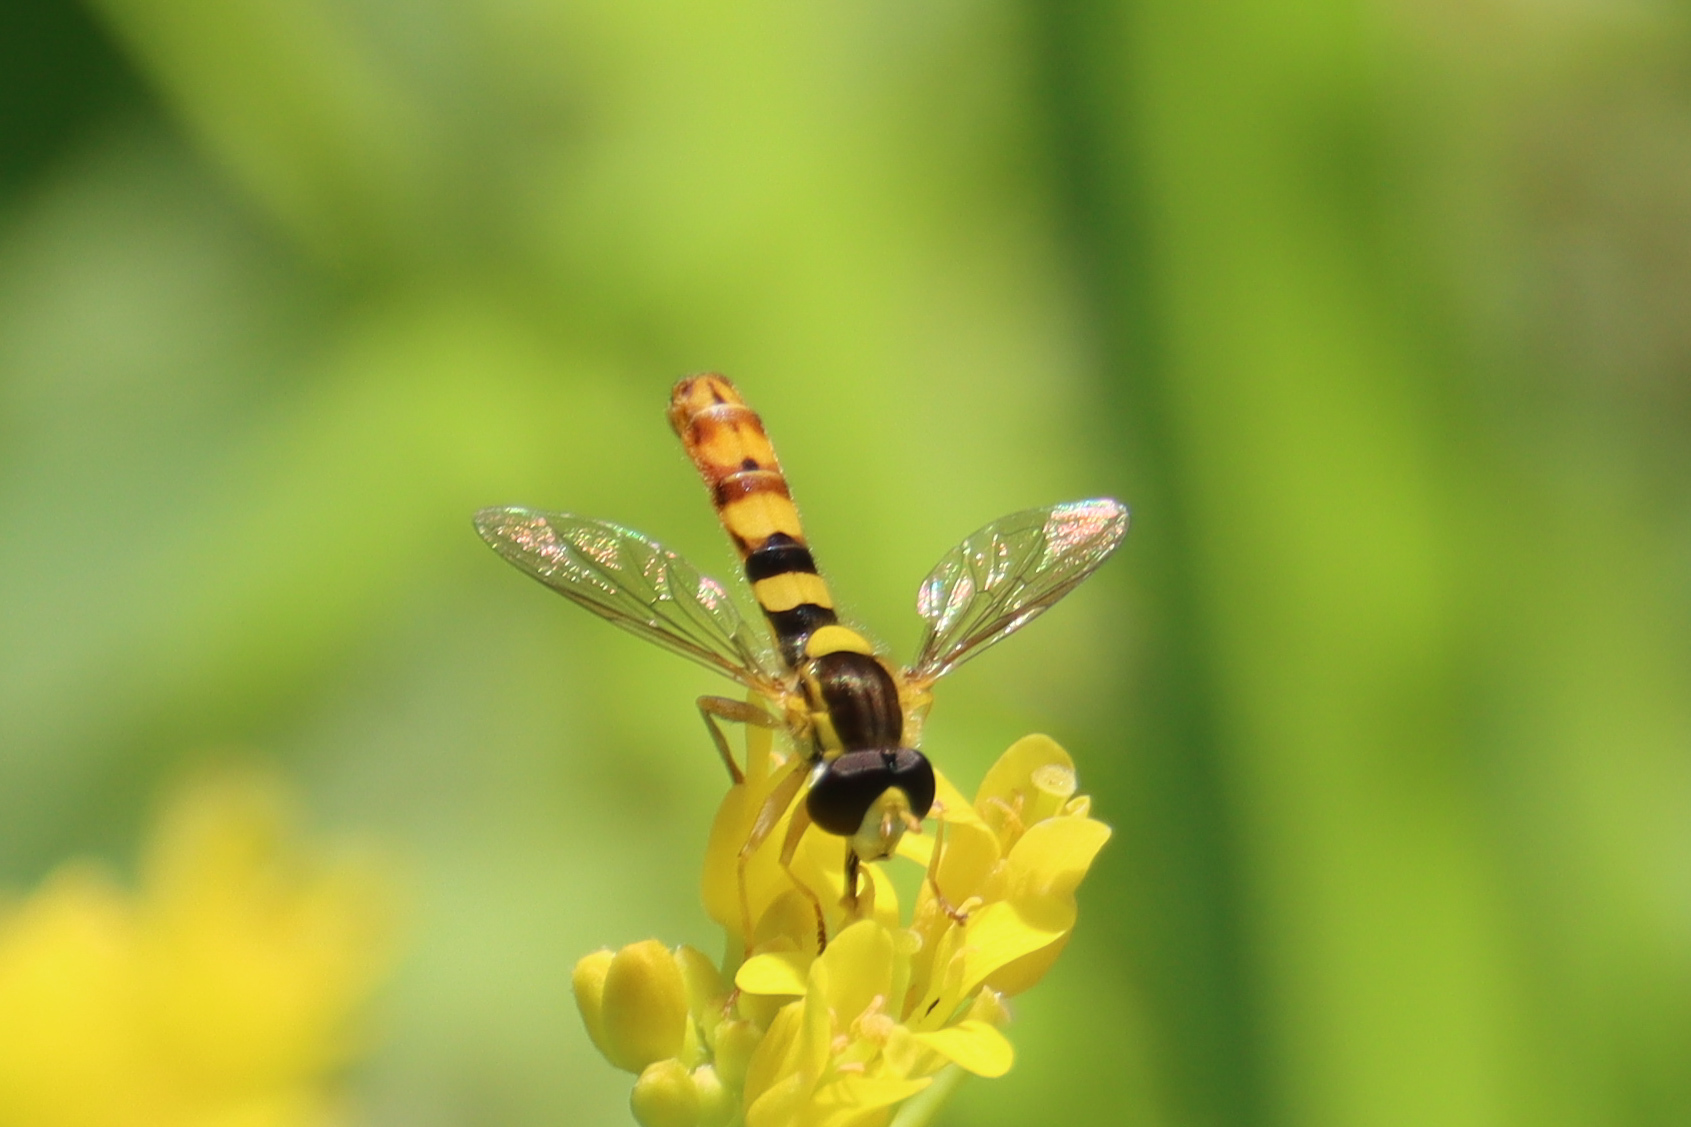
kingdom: Animalia
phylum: Arthropoda
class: Insecta
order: Diptera
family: Syrphidae
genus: Sphaerophoria
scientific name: Sphaerophoria scripta
